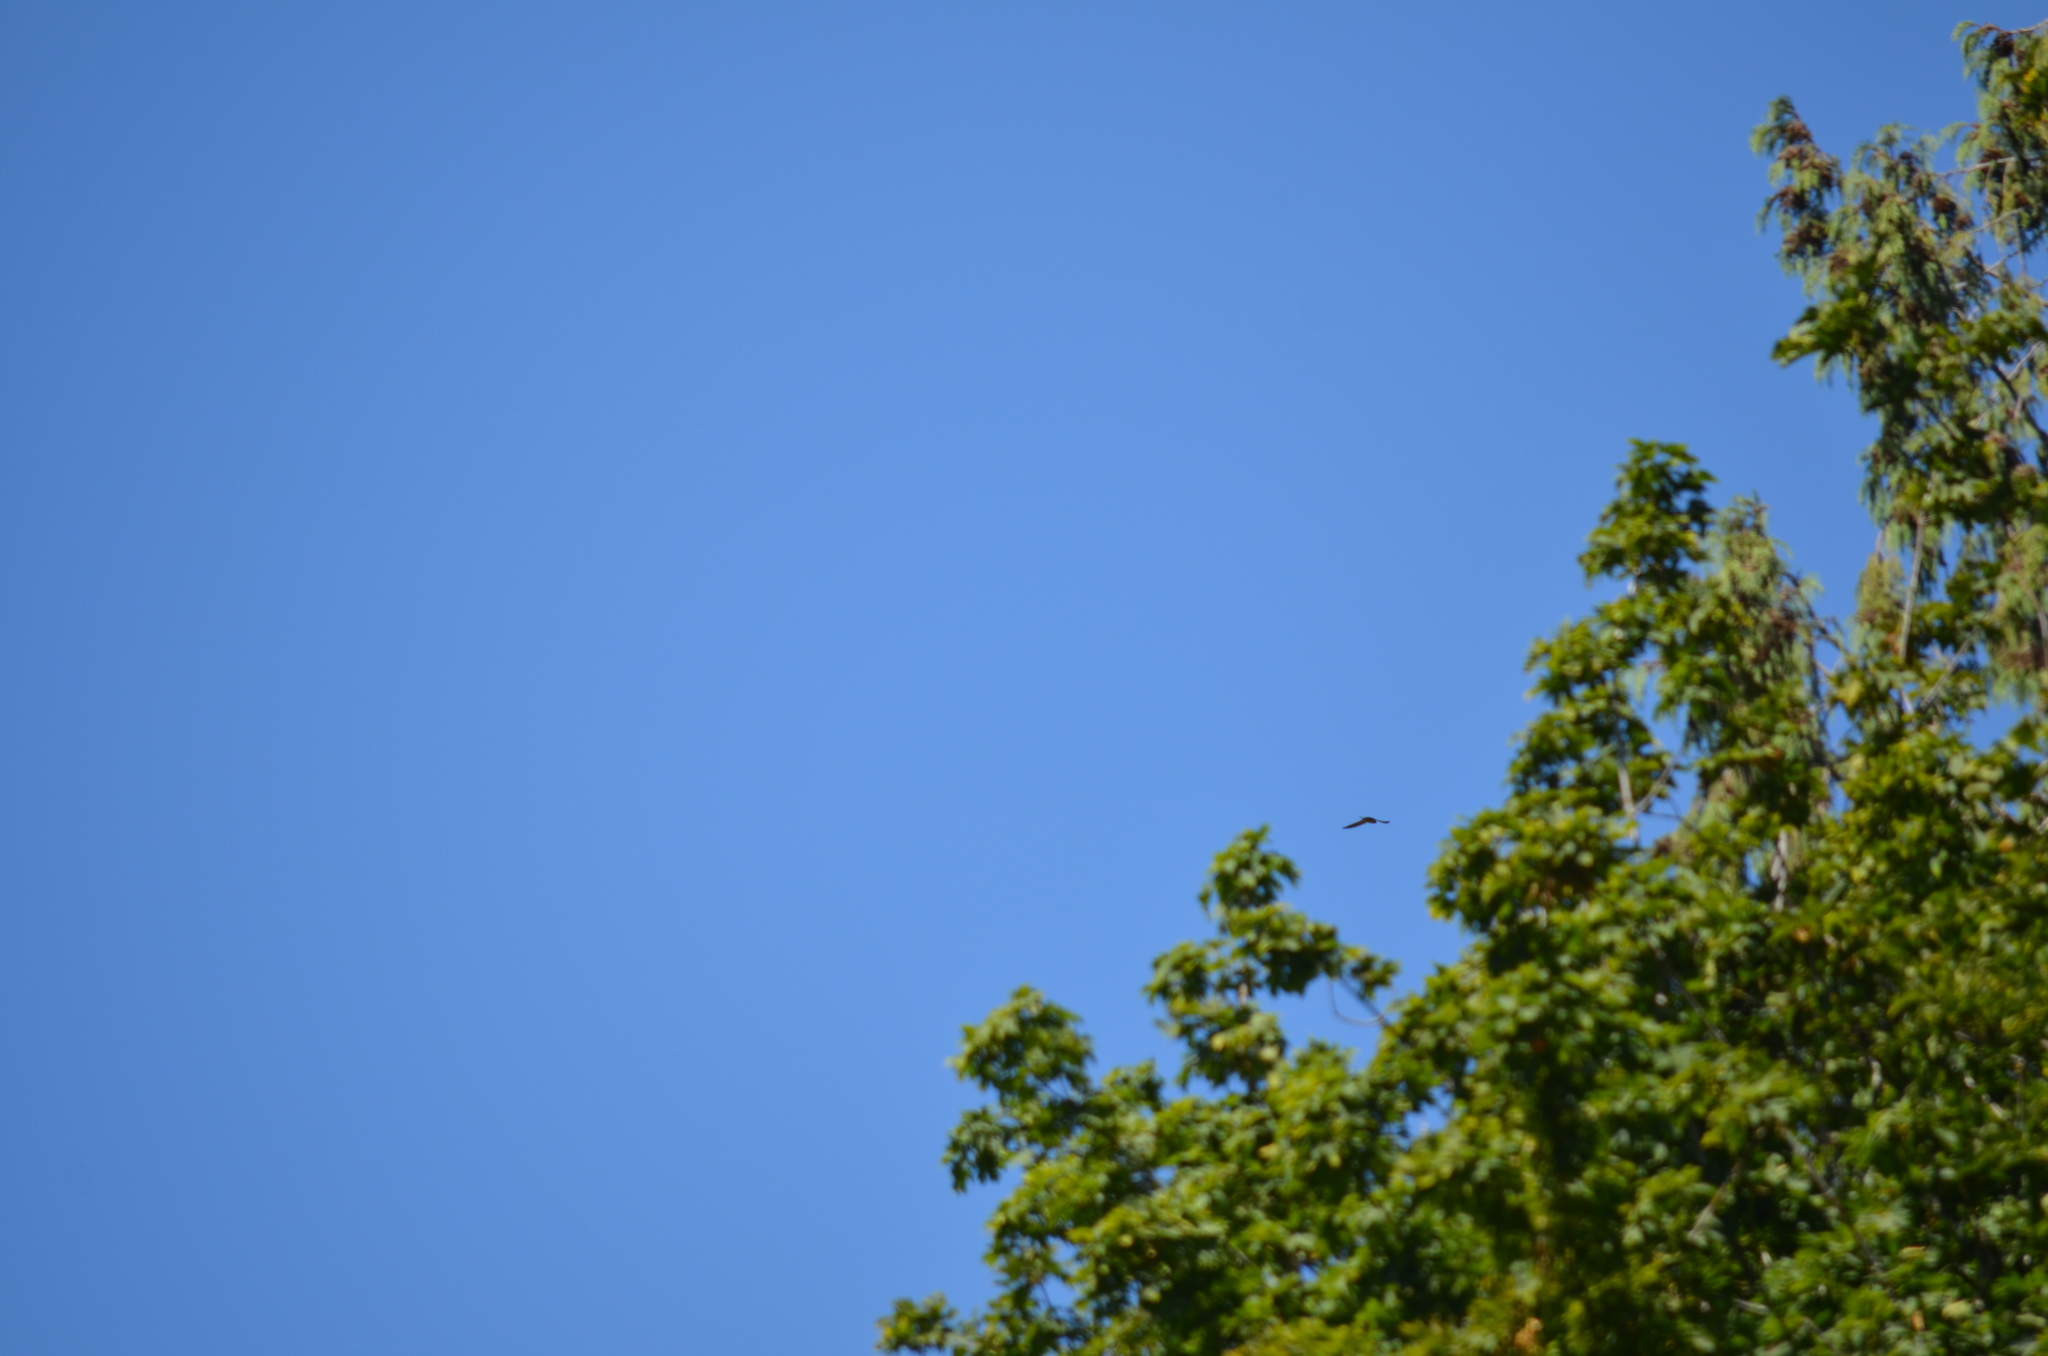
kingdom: Animalia
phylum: Chordata
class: Aves
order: Passeriformes
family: Hirundinidae
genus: Hirundo
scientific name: Hirundo rustica
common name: Barn swallow
